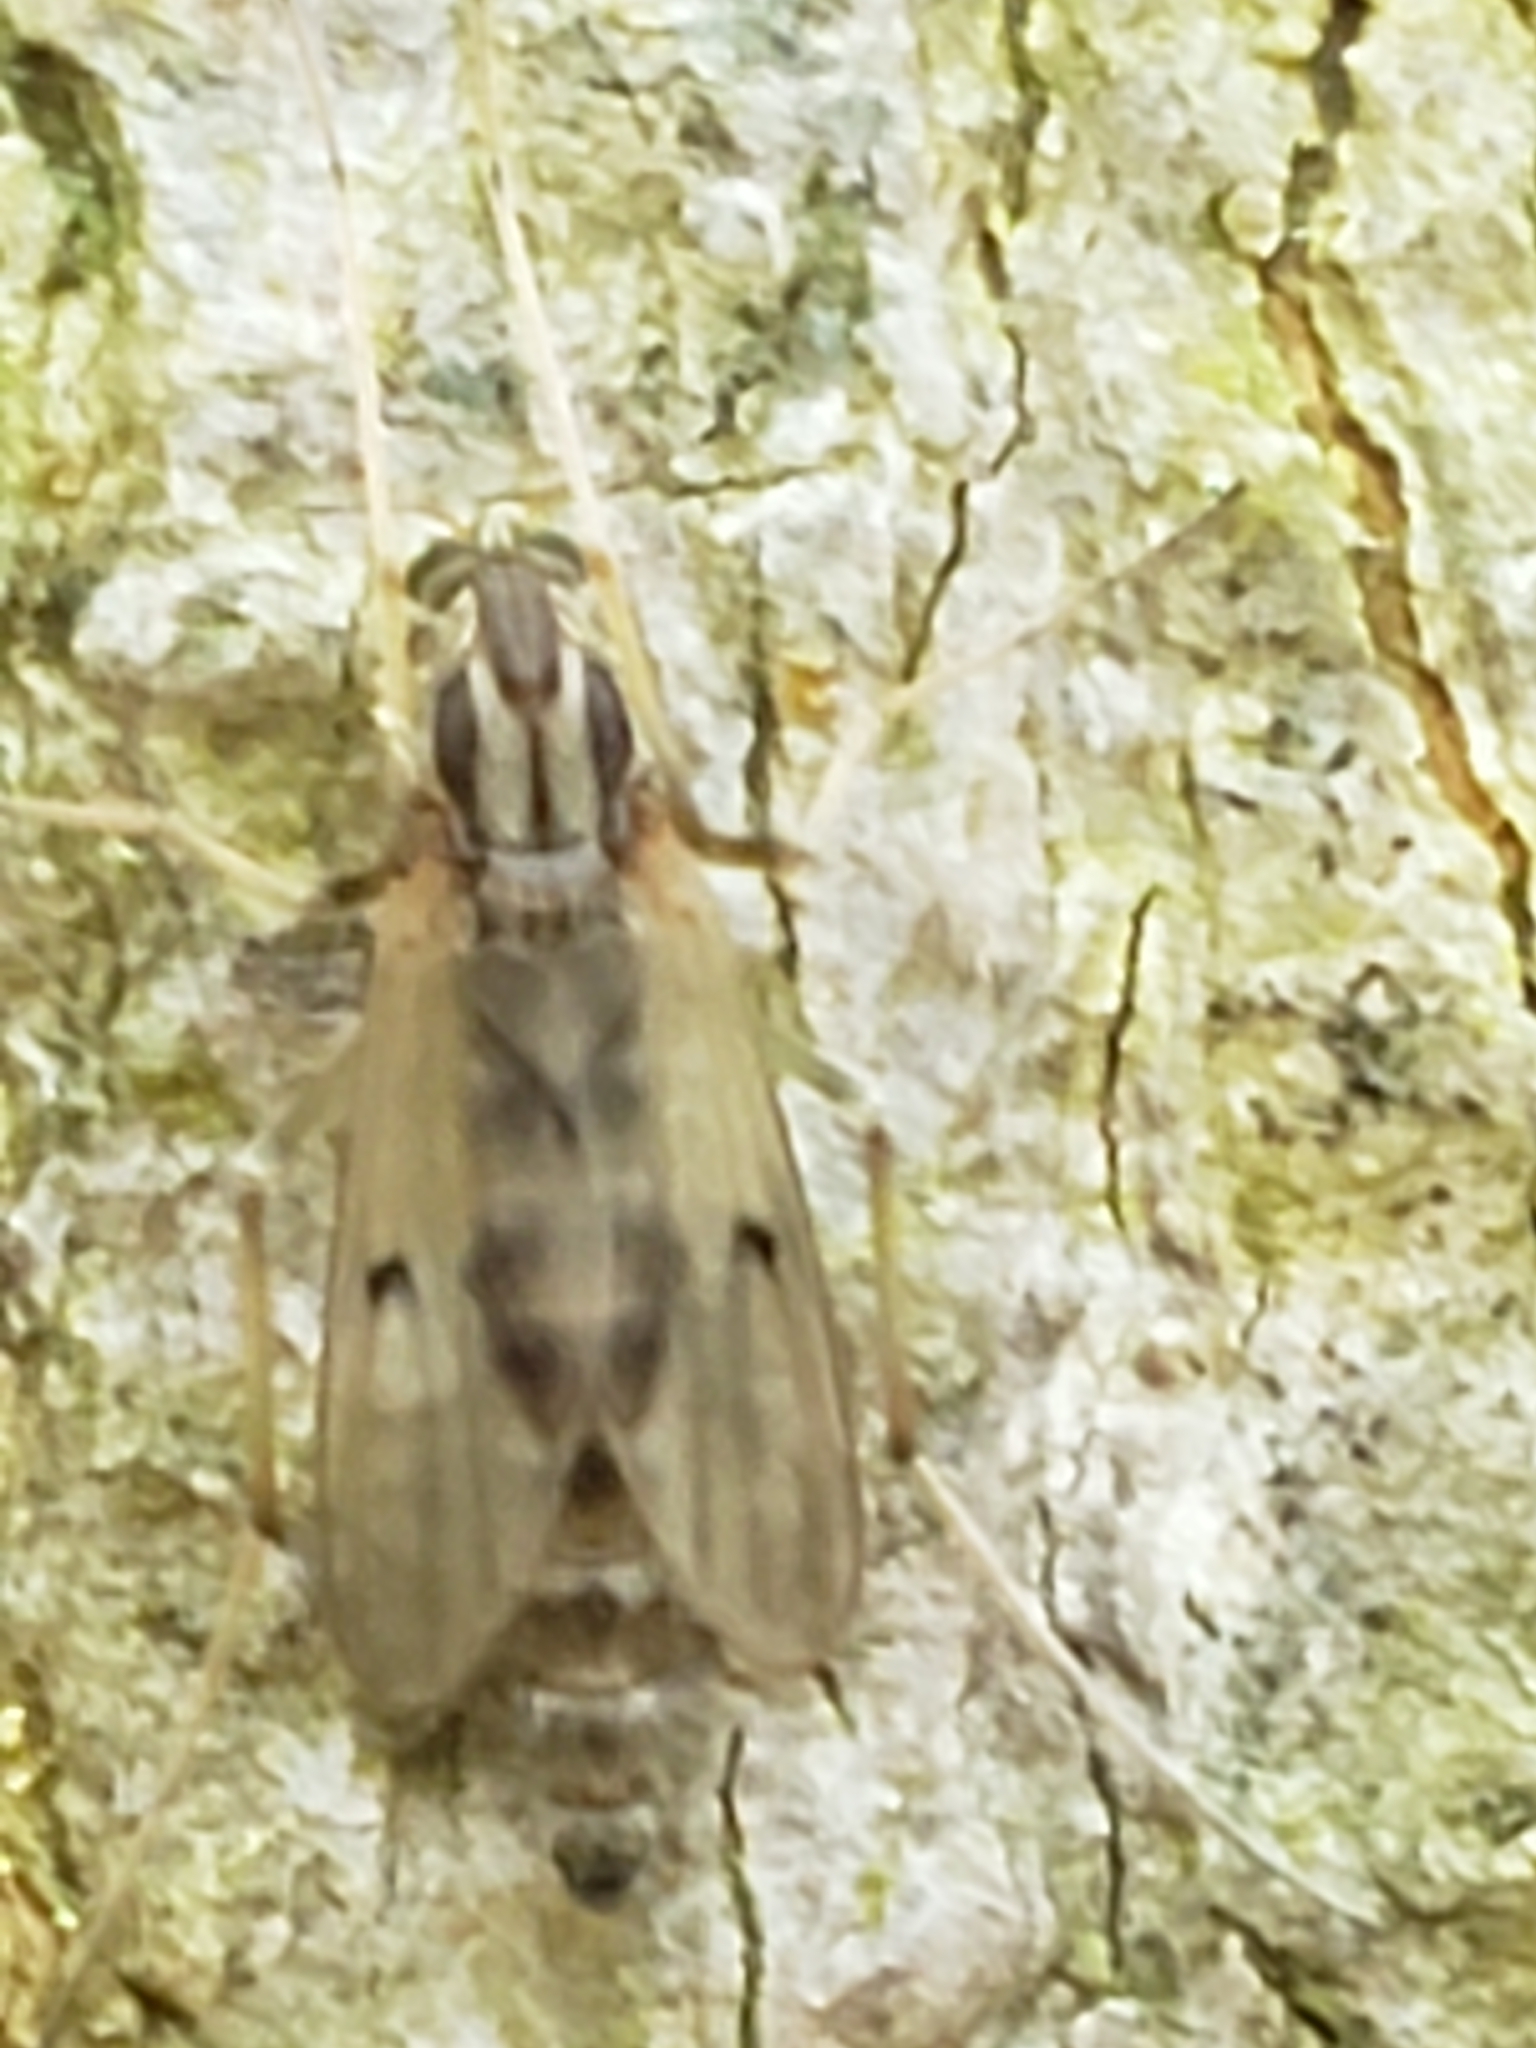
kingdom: Animalia
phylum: Arthropoda
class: Insecta
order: Diptera
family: Chironomidae
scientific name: Chironomidae
